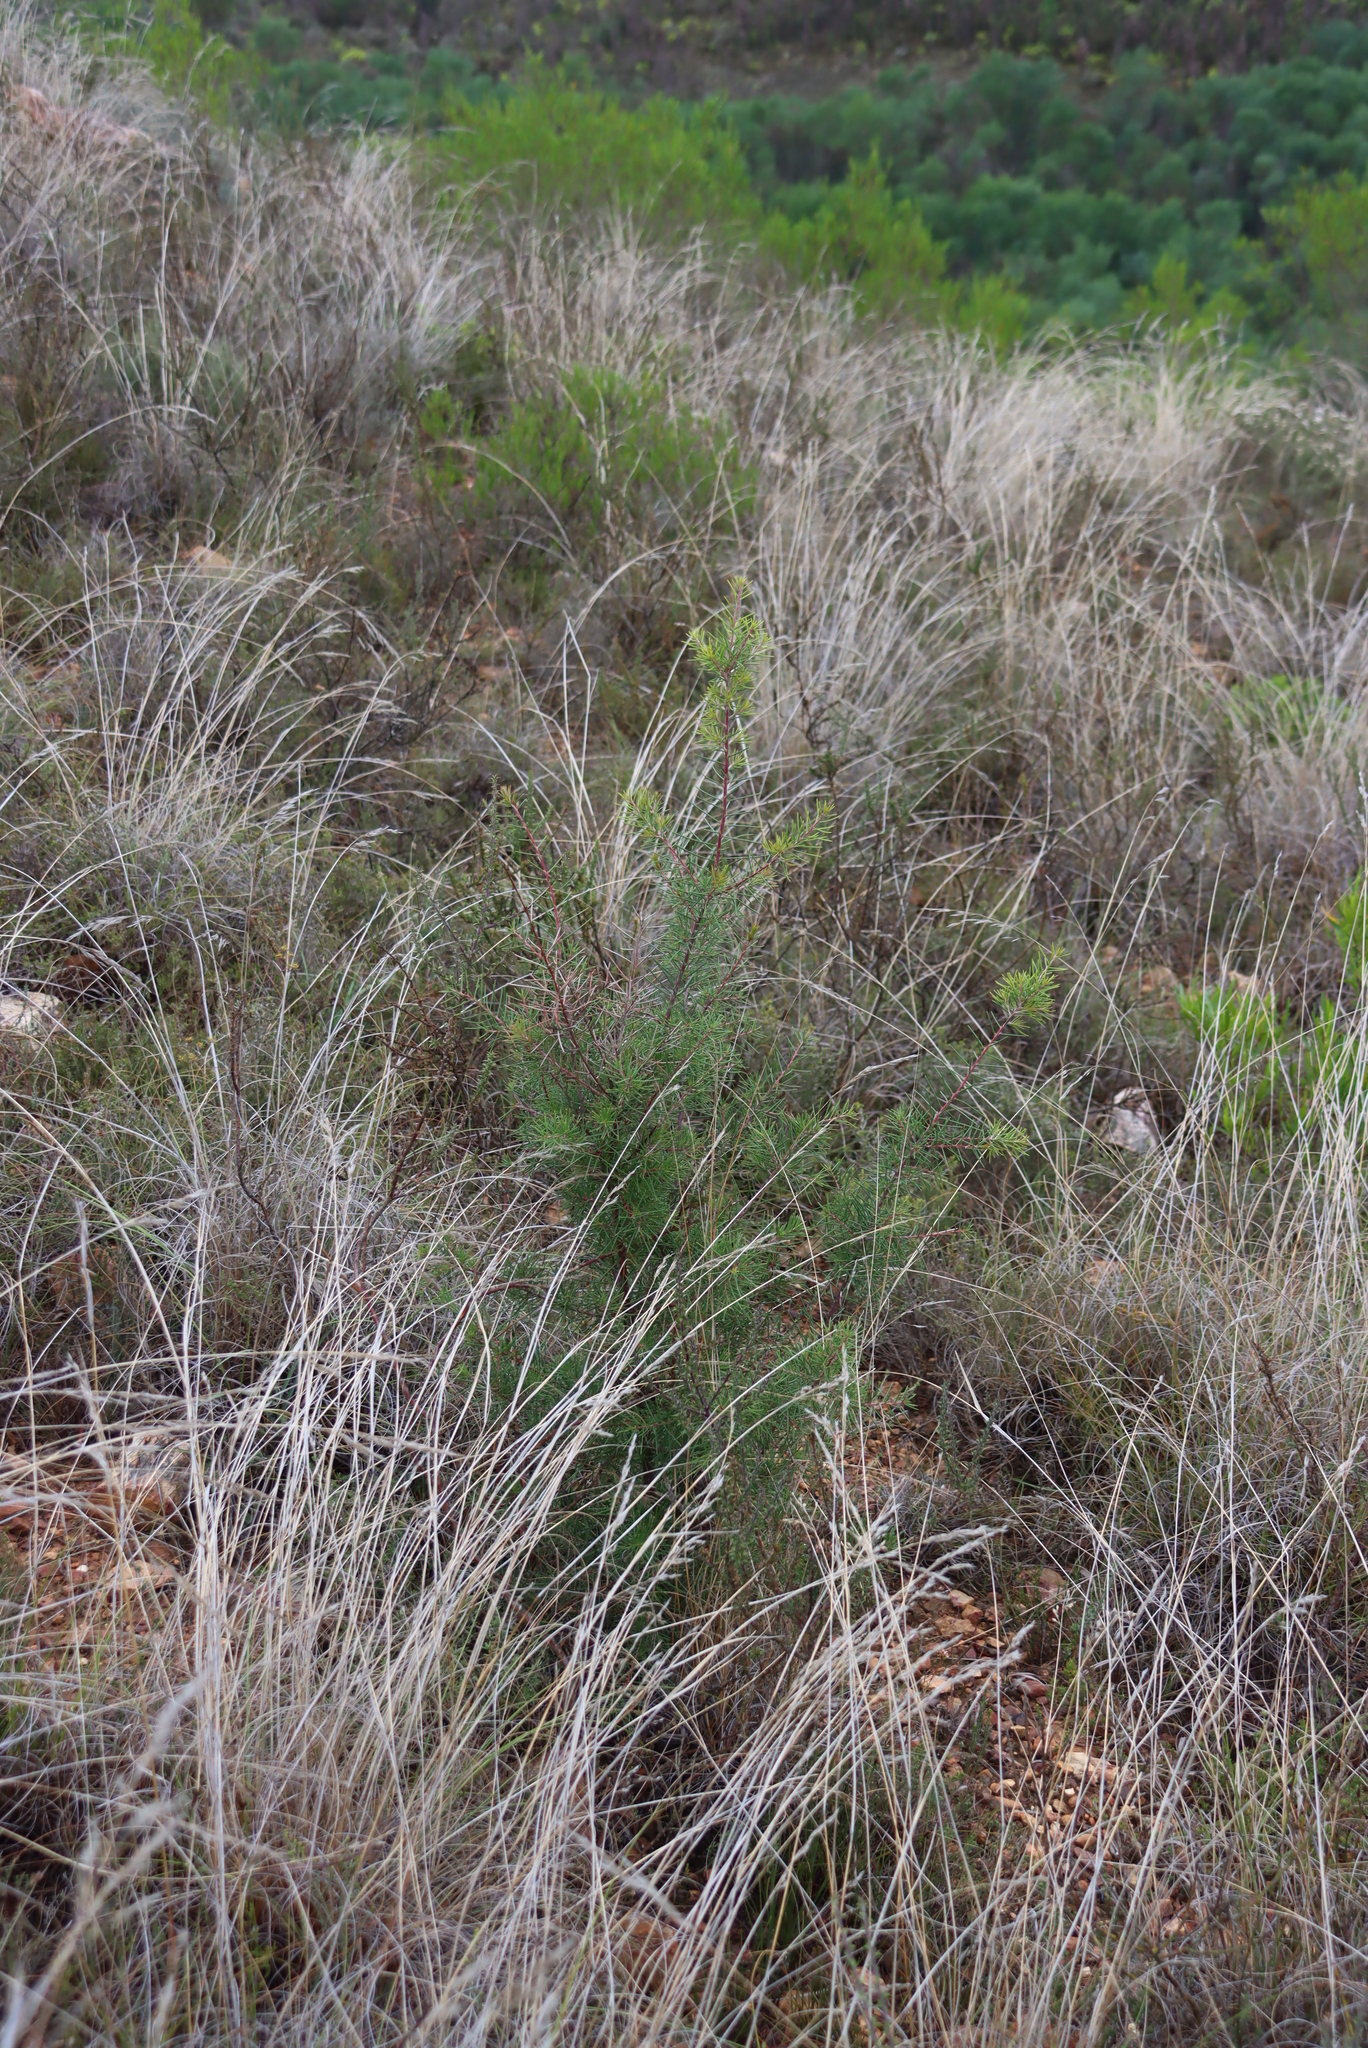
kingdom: Plantae
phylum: Tracheophyta
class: Magnoliopsida
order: Proteales
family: Proteaceae
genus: Hakea
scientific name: Hakea sericea
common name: Needle bush
